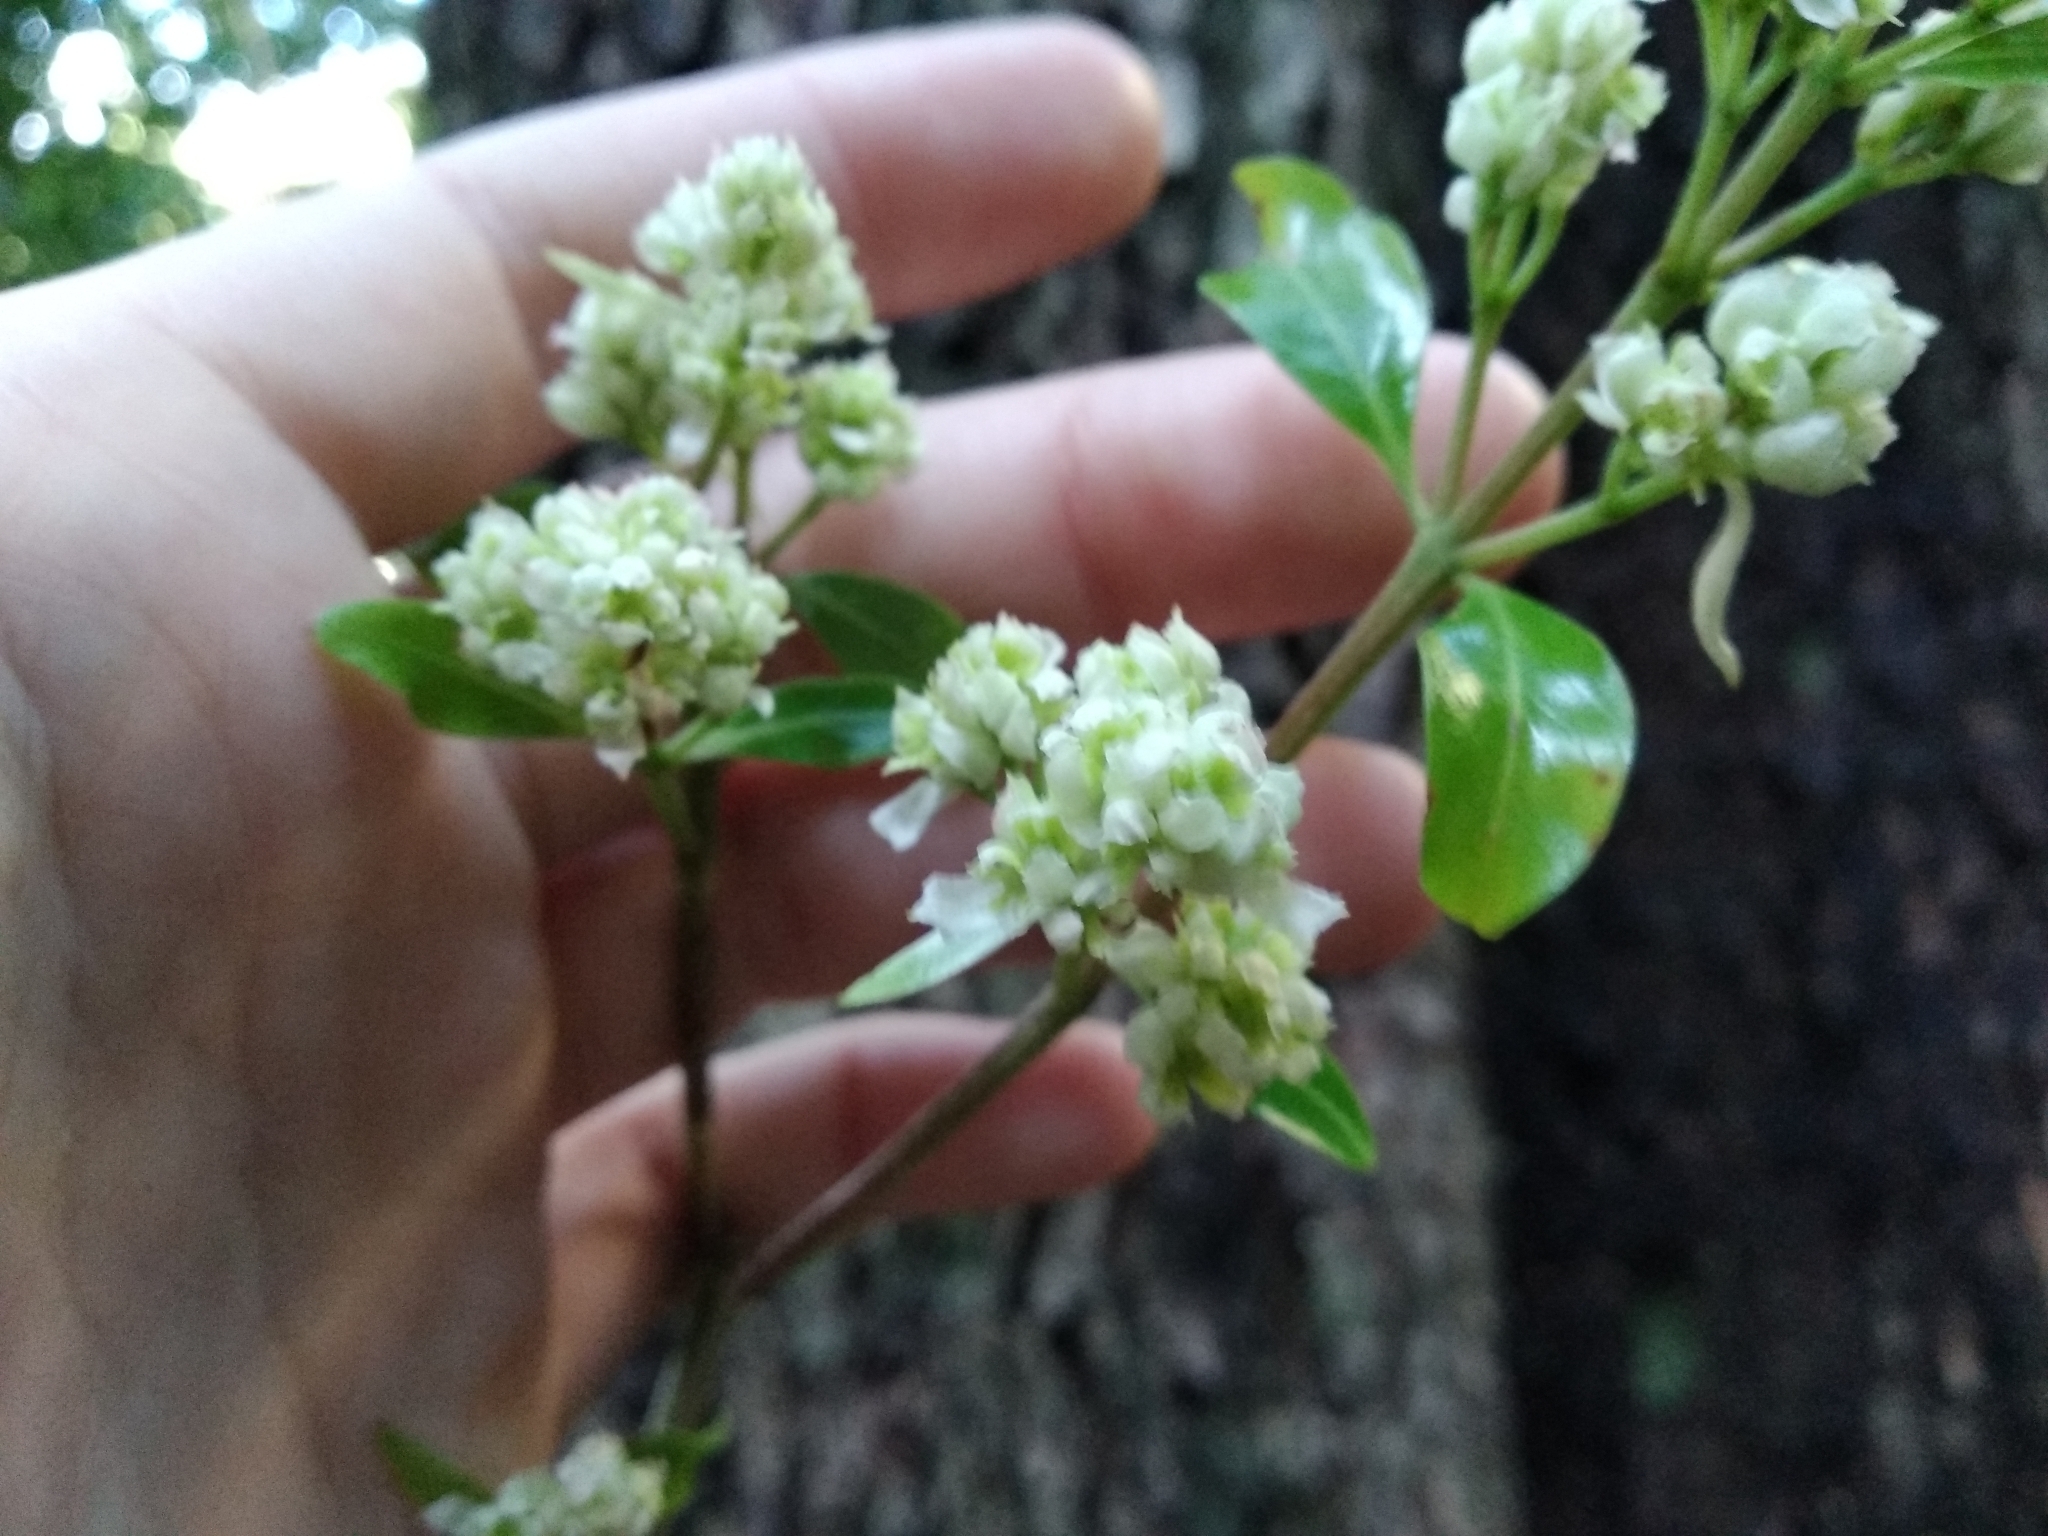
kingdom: Plantae
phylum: Tracheophyta
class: Magnoliopsida
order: Myrtales
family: Penaeaceae
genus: Olinia
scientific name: Olinia ventosa
